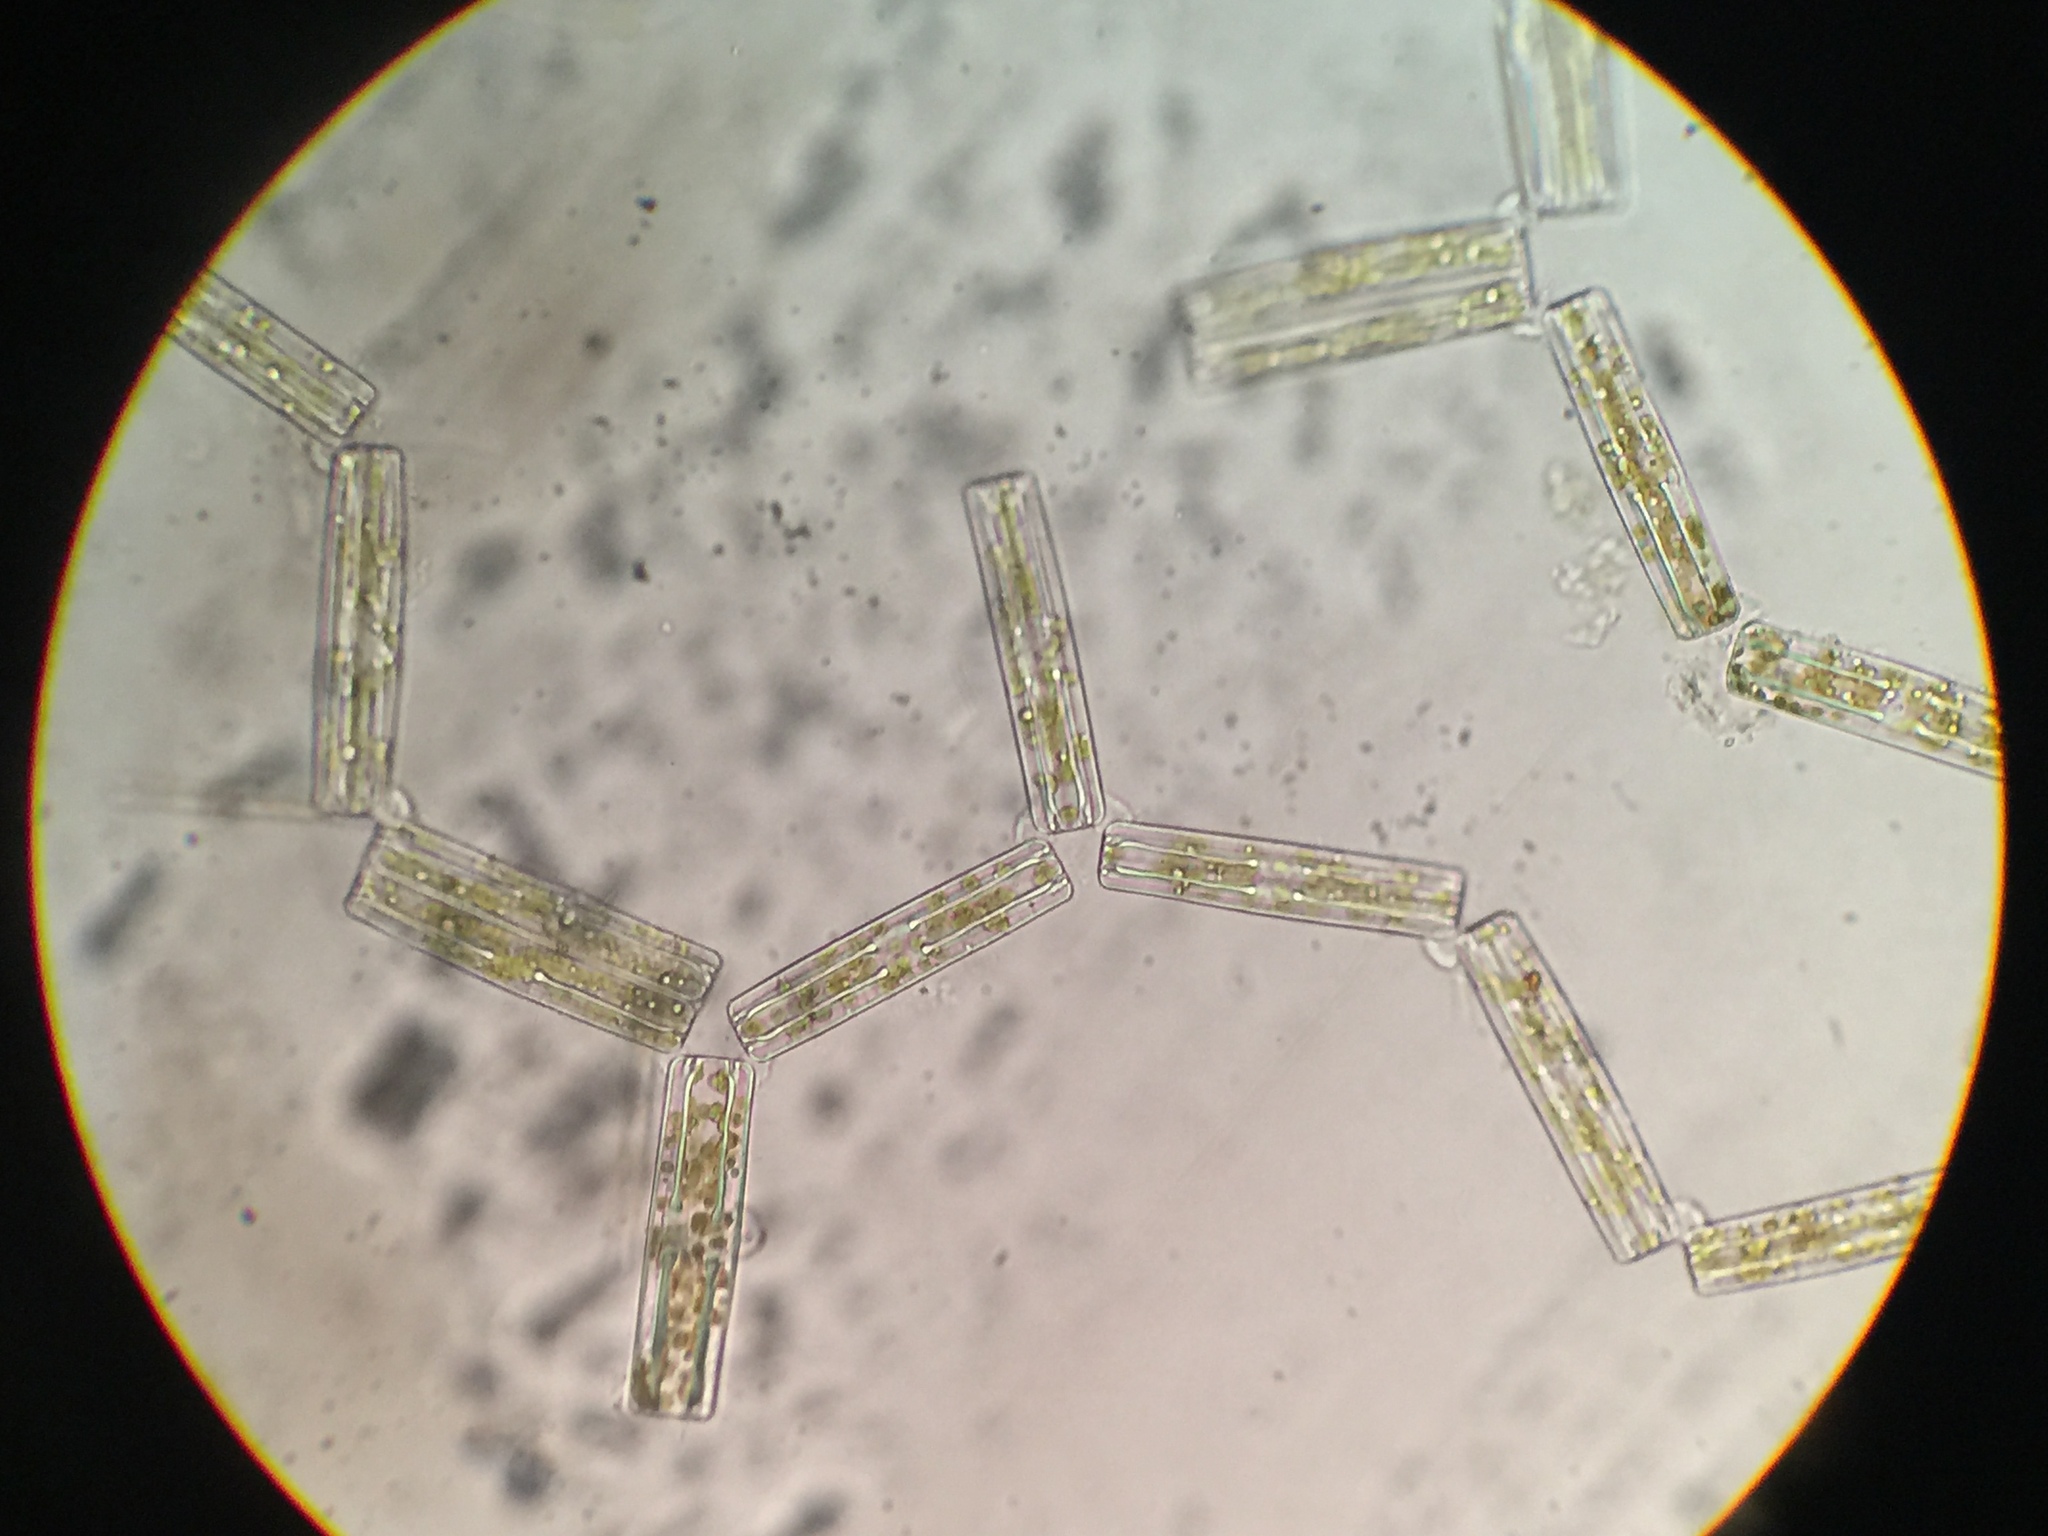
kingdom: Chromista
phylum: Ochrophyta
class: Bacillariophyceae
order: Thalassionematales
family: Thalassionemataceae
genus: Thalassionema
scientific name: Thalassionema nitzschioides
